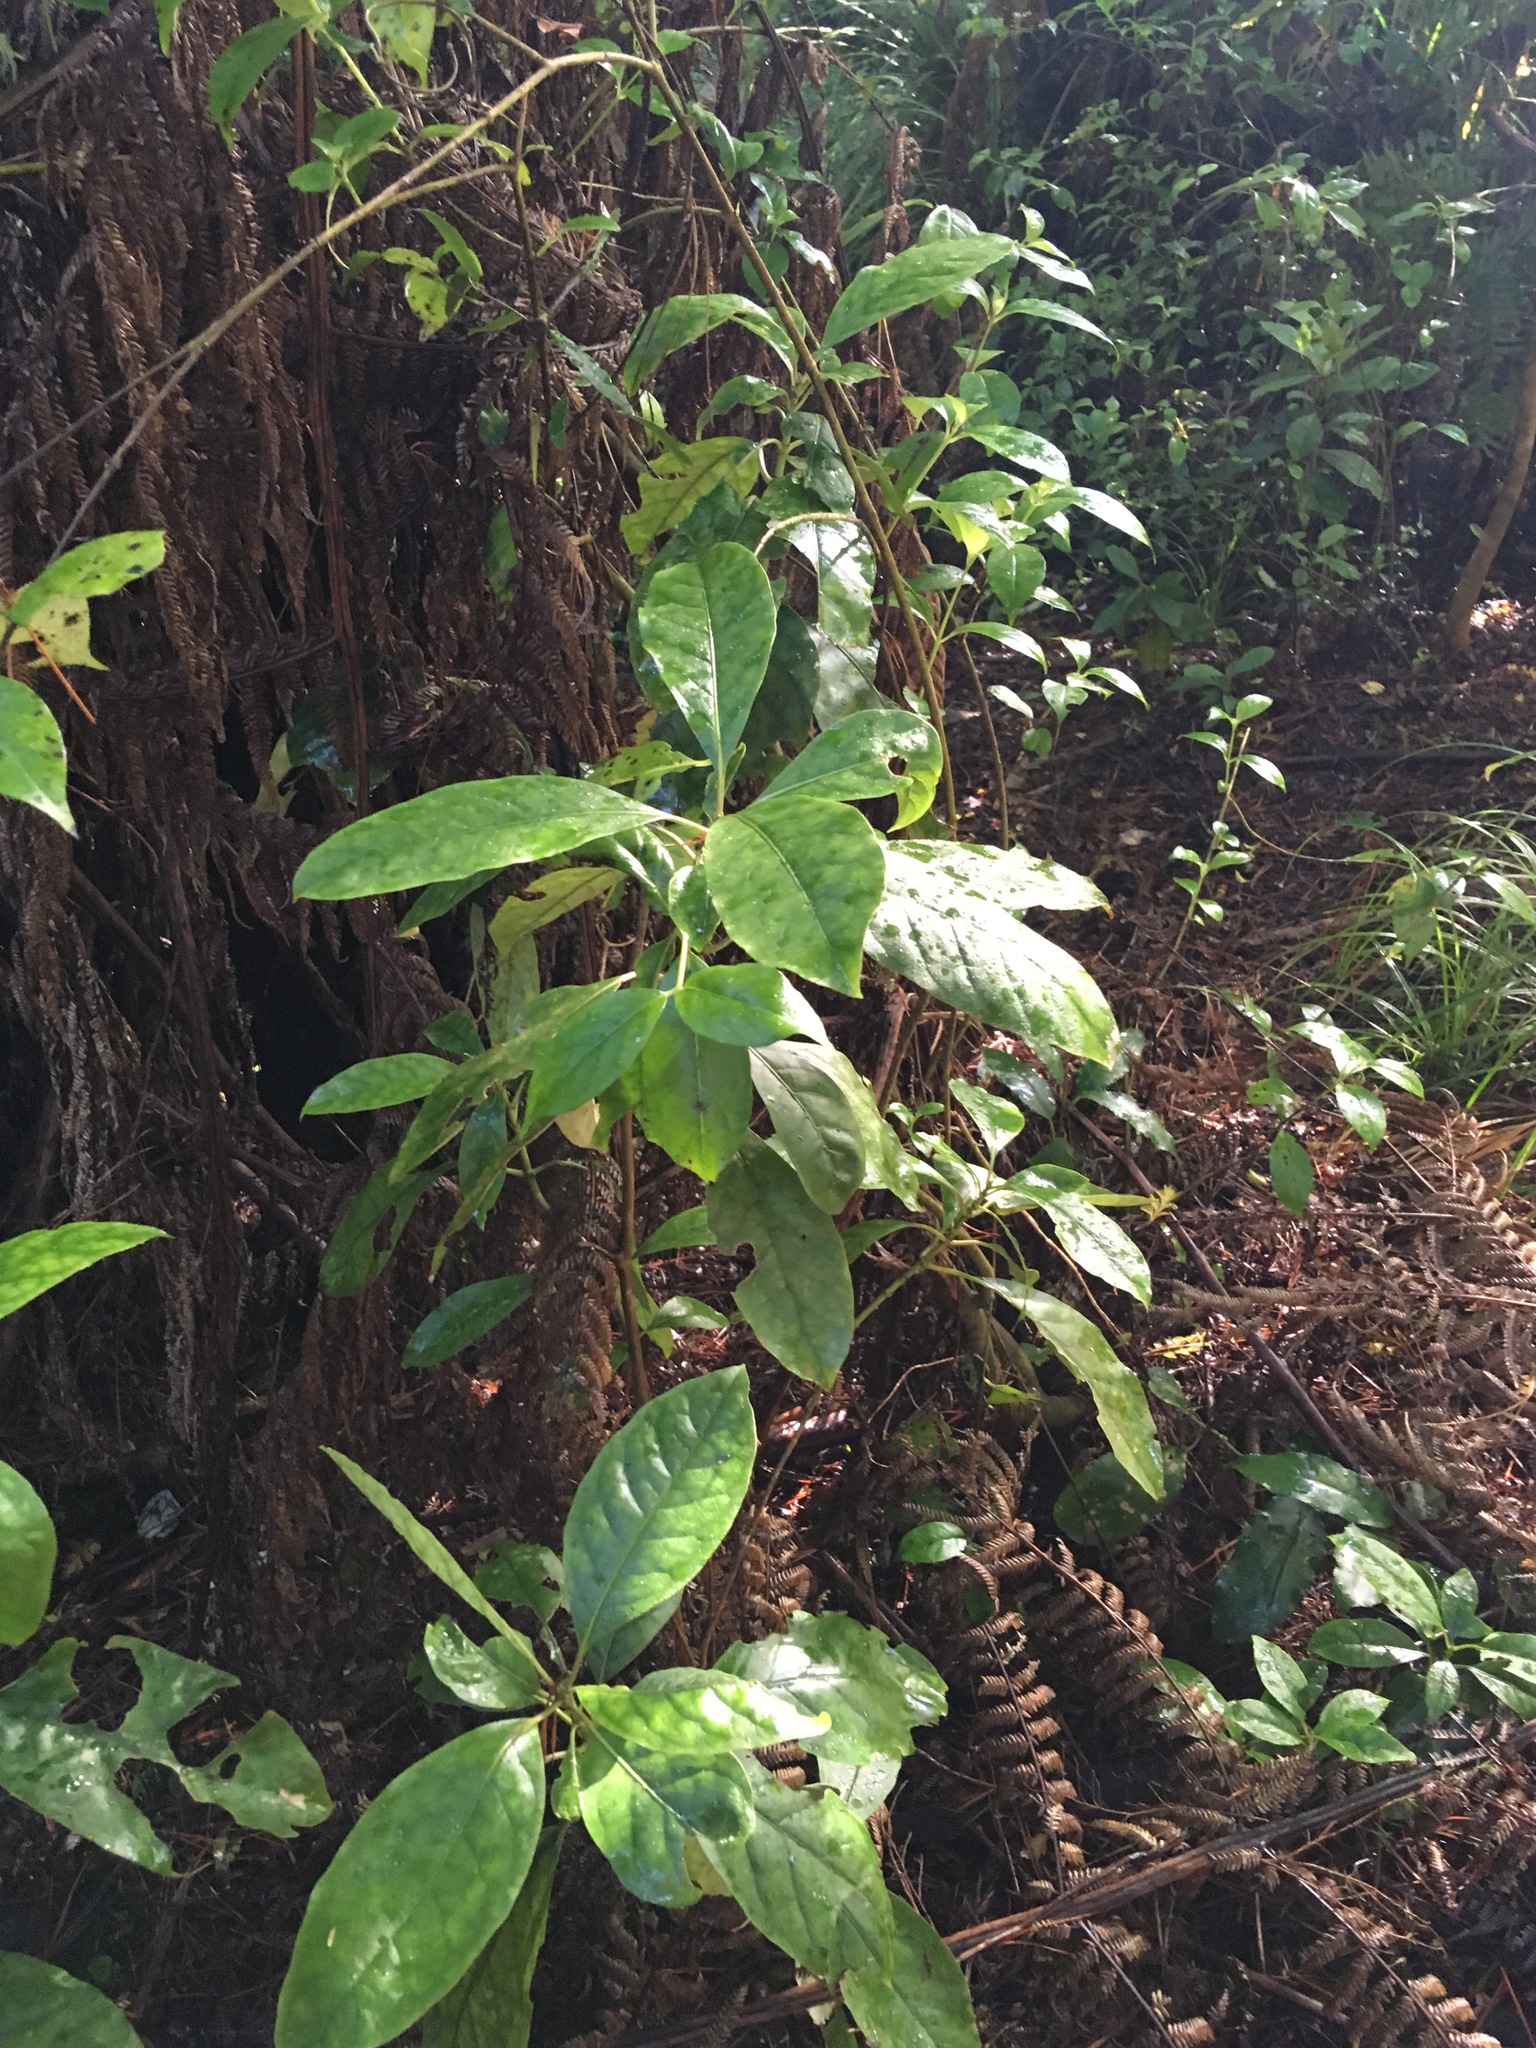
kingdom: Plantae
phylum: Tracheophyta
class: Magnoliopsida
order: Gentianales
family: Rubiaceae
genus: Coprosma
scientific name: Coprosma autumnalis
